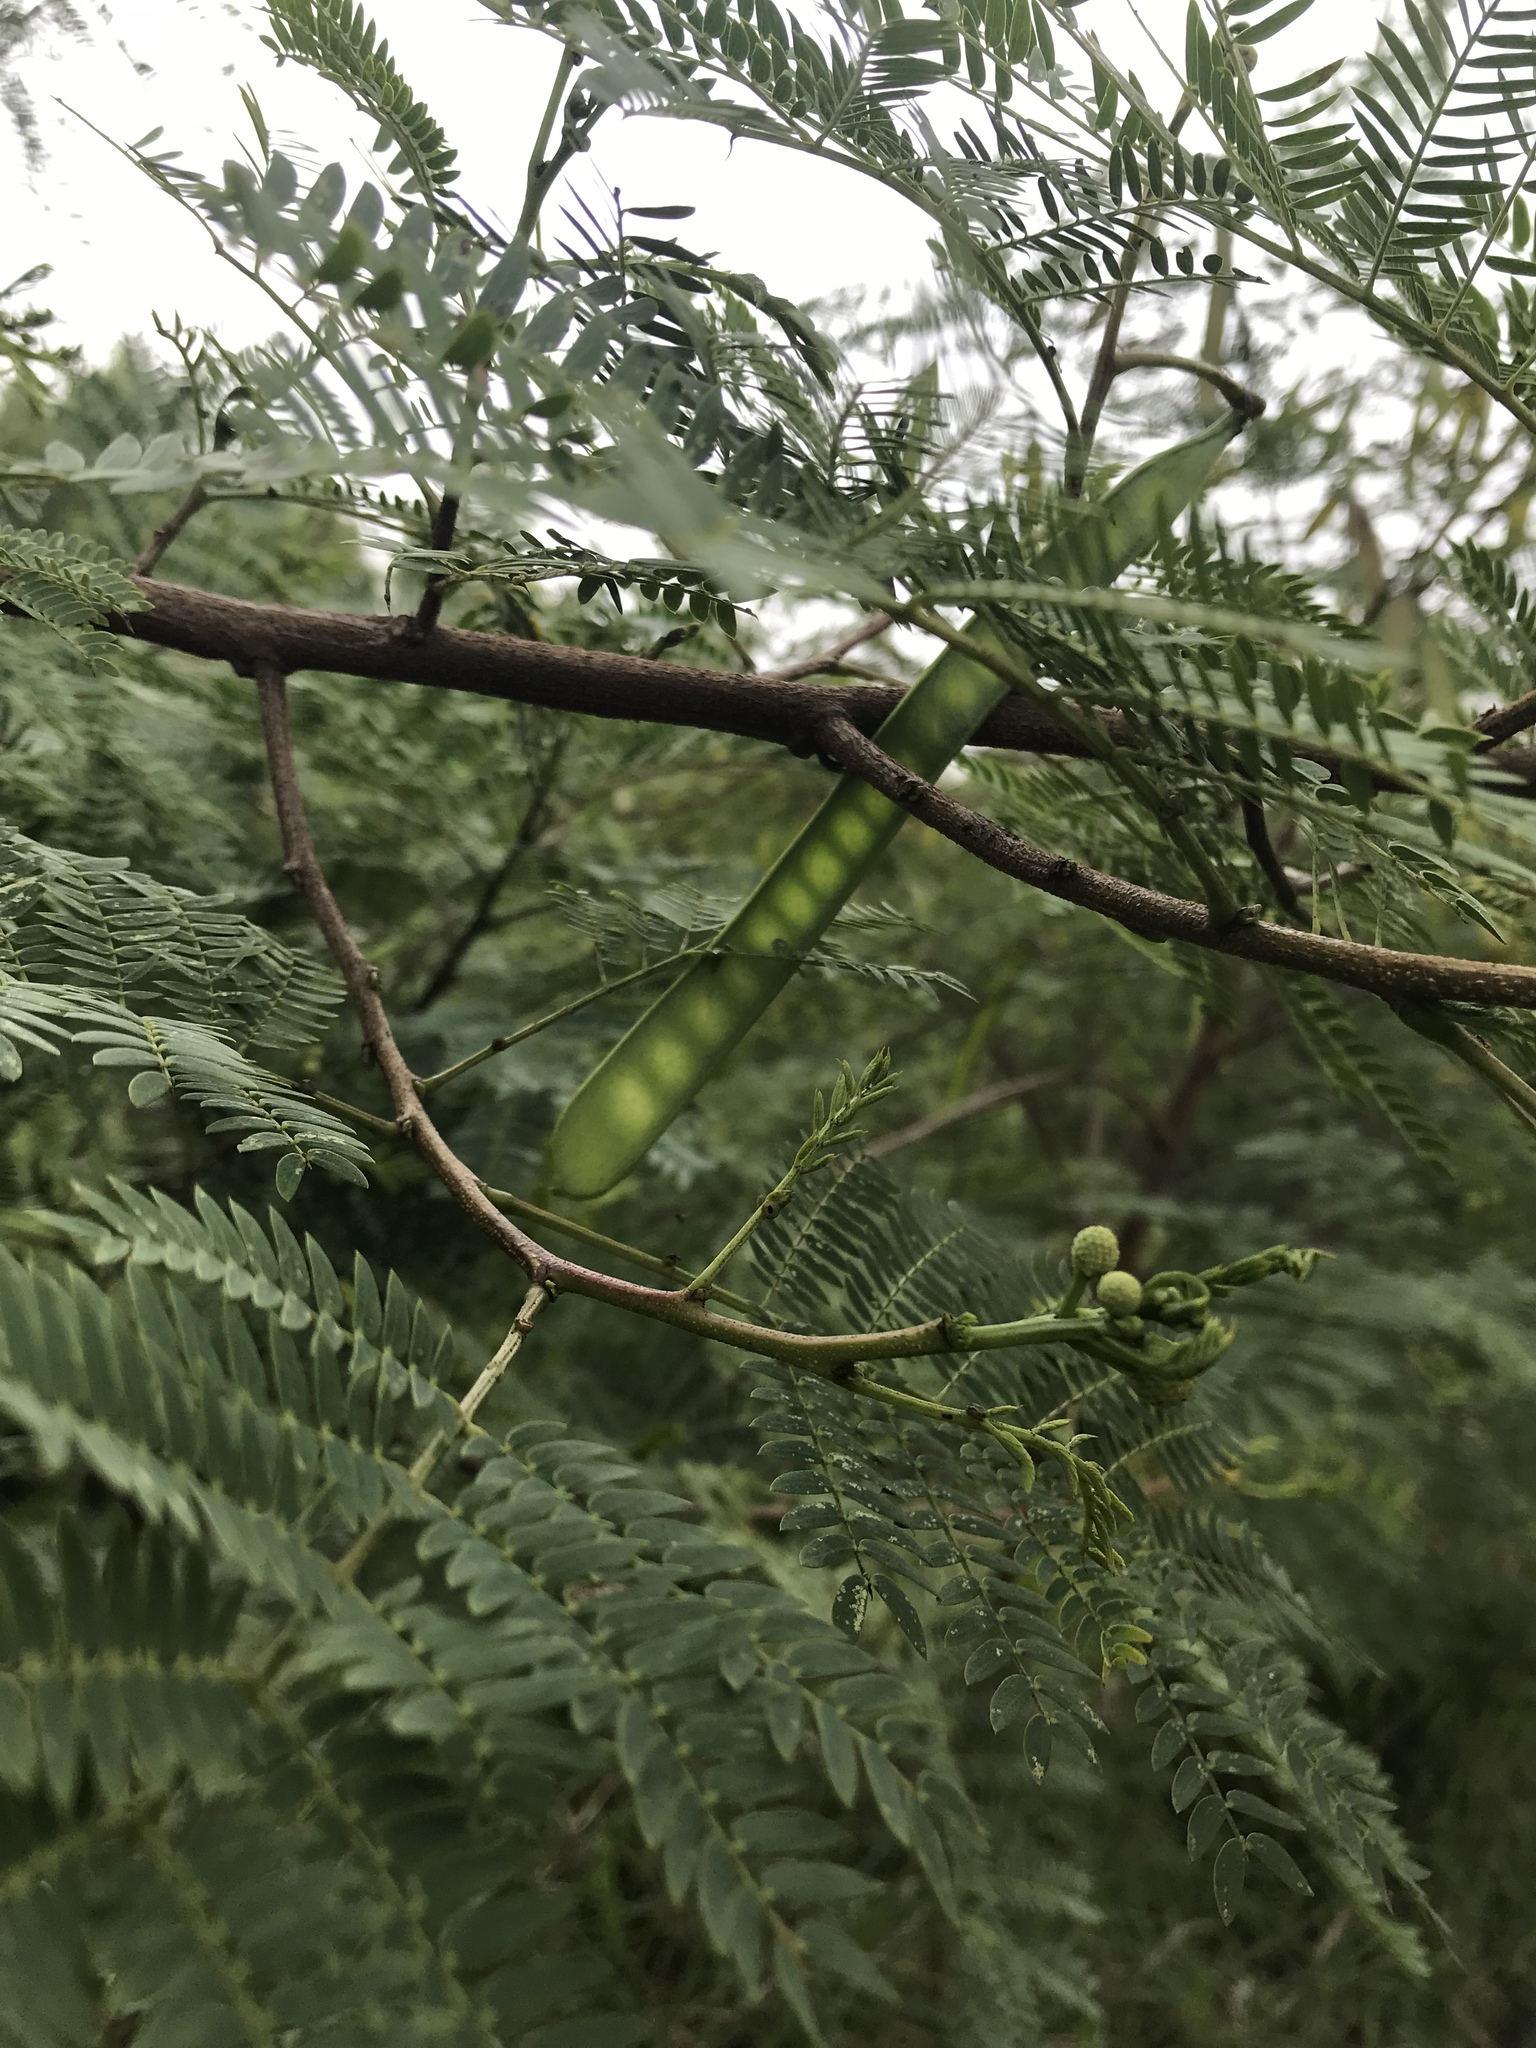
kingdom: Plantae
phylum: Tracheophyta
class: Magnoliopsida
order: Fabales
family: Fabaceae
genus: Leucaena
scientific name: Leucaena leucocephala
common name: White leadtree
